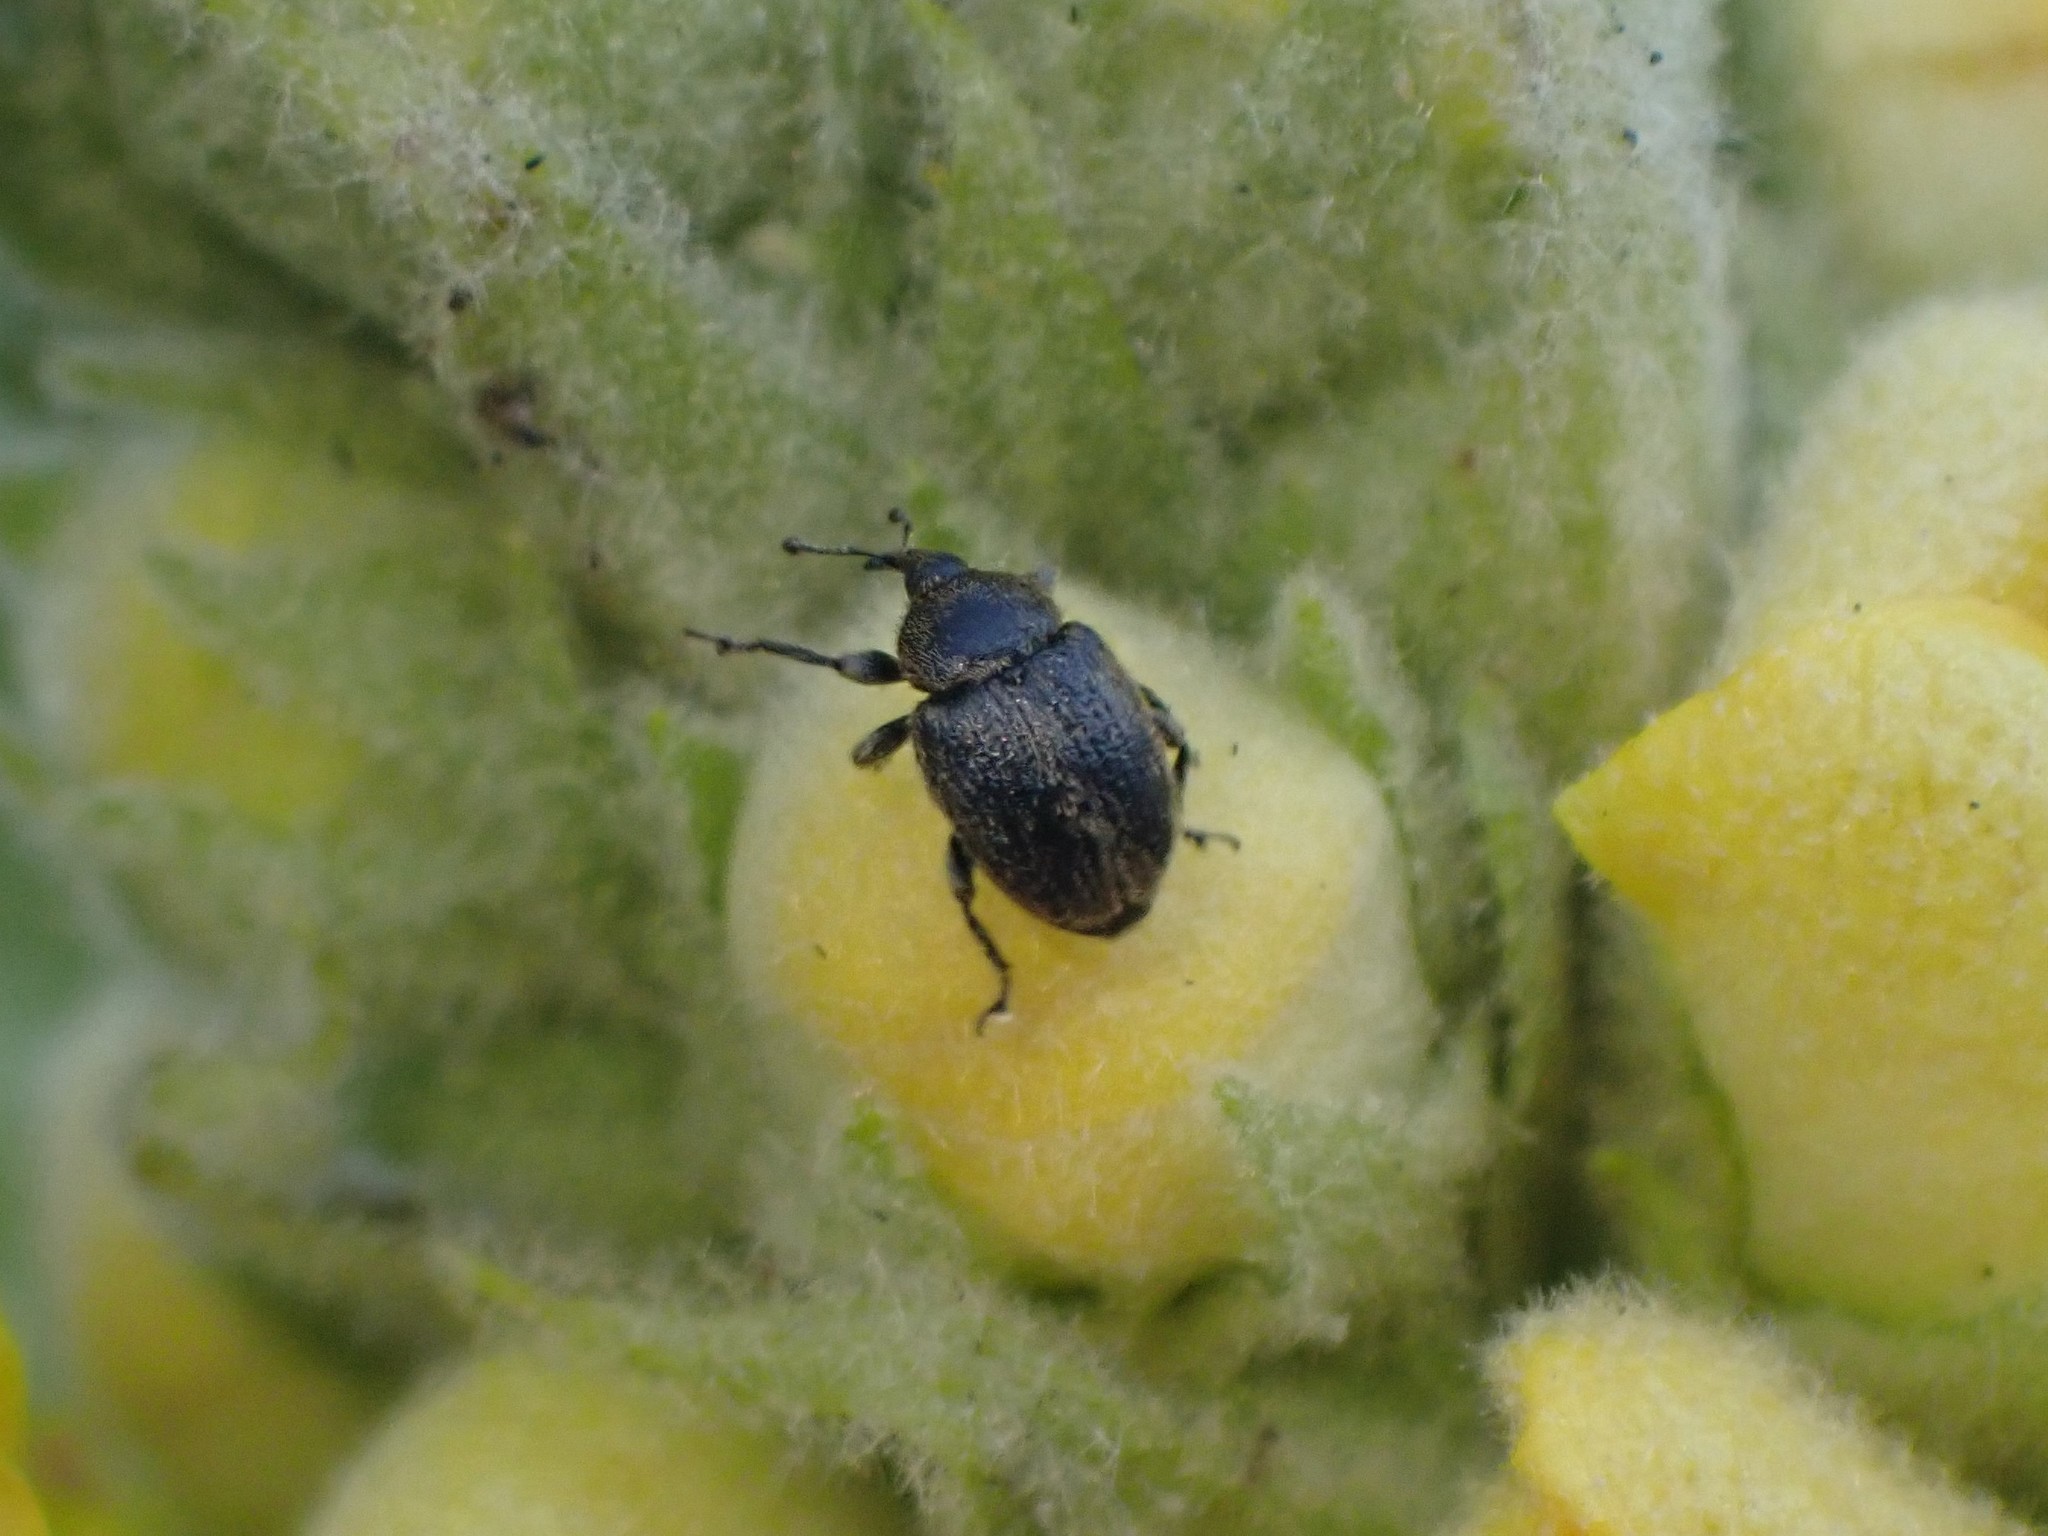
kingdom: Animalia
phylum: Arthropoda
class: Insecta
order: Coleoptera
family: Curculionidae
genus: Rhinusa
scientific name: Rhinusa tetra
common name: Weevil
